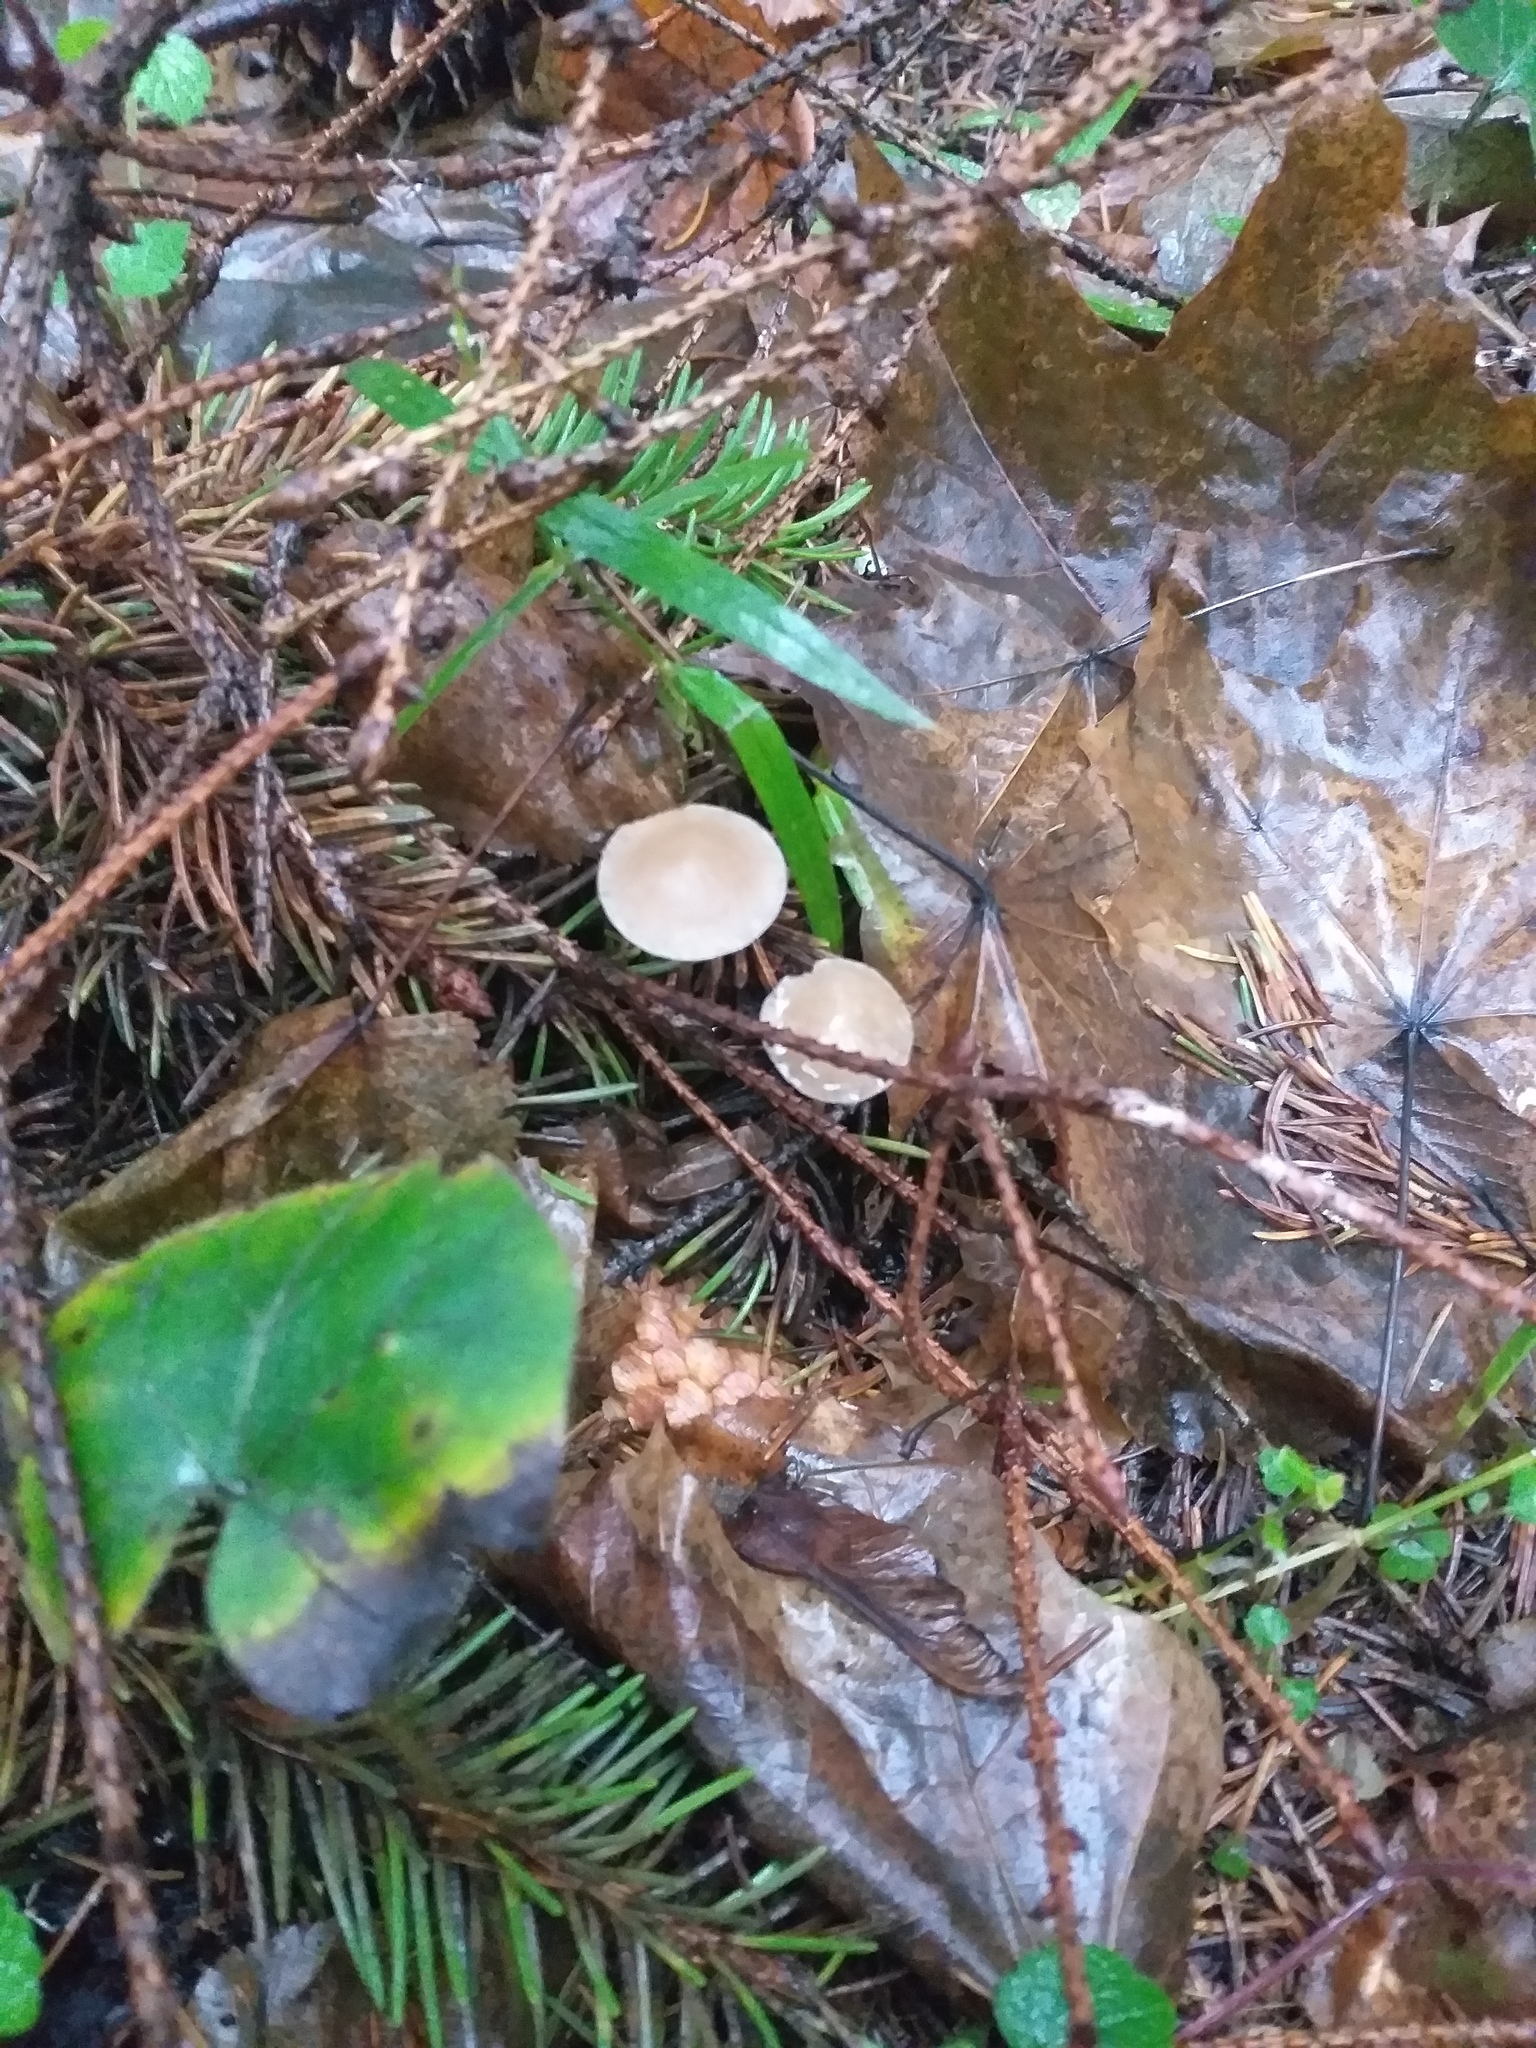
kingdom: Fungi
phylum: Basidiomycota
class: Agaricomycetes
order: Agaricales
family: Physalacriaceae
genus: Strobilurus
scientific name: Strobilurus esculentus
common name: Sprucecone cap
